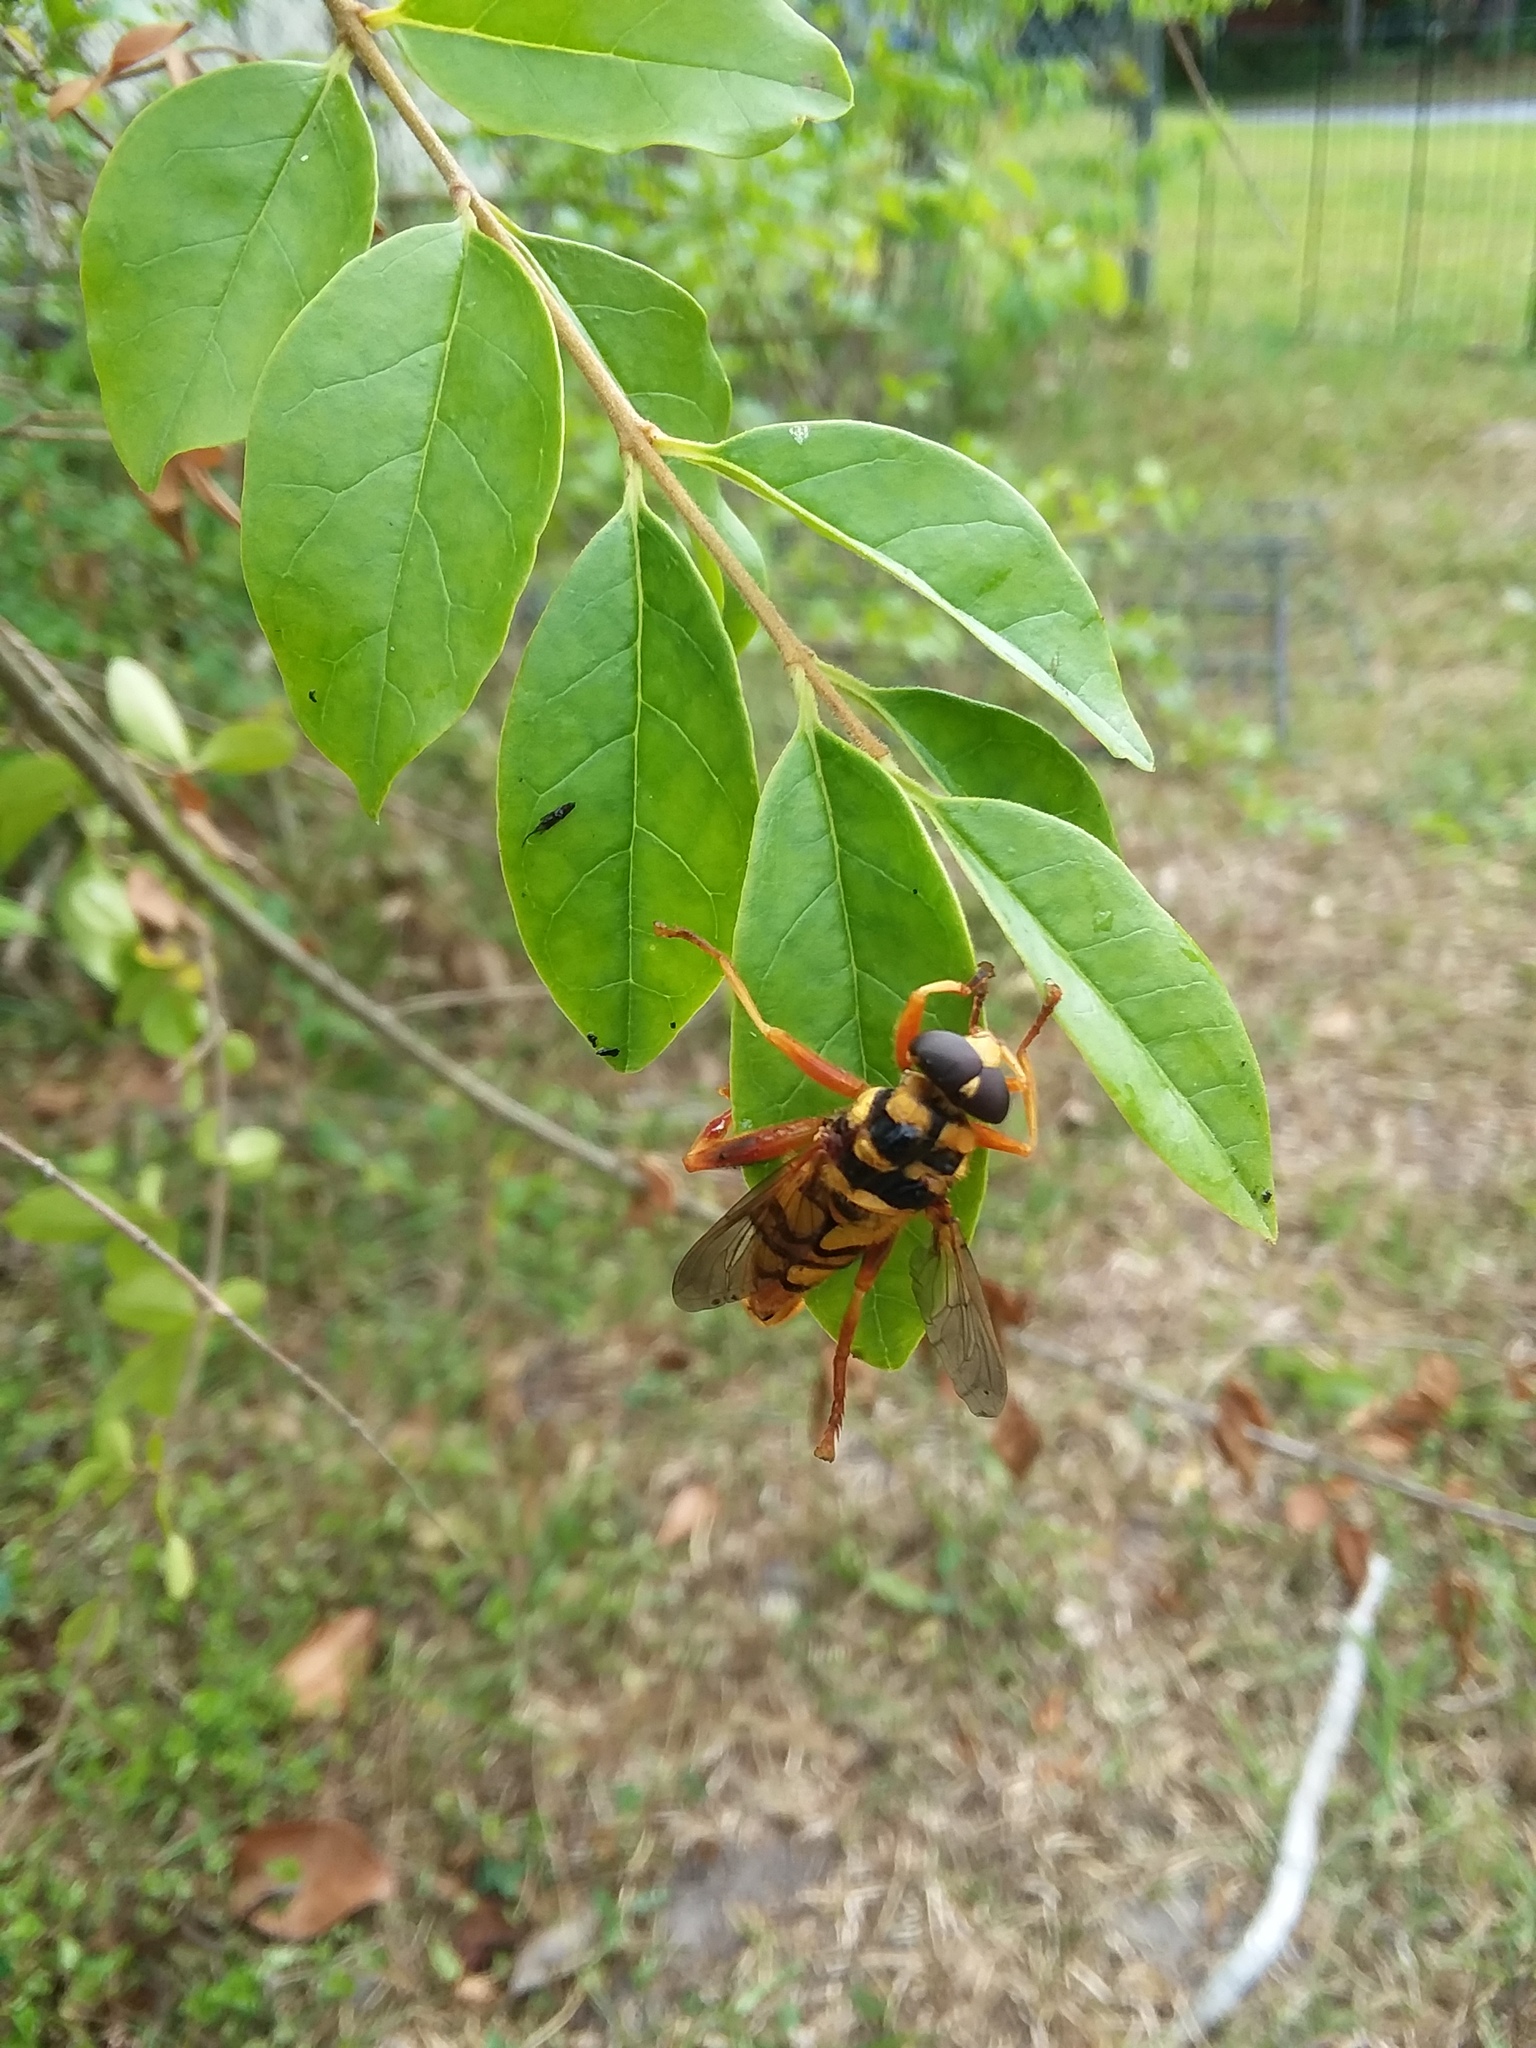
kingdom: Animalia
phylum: Arthropoda
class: Insecta
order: Diptera
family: Syrphidae
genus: Milesia
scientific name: Milesia virginiensis
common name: Virginia giant
